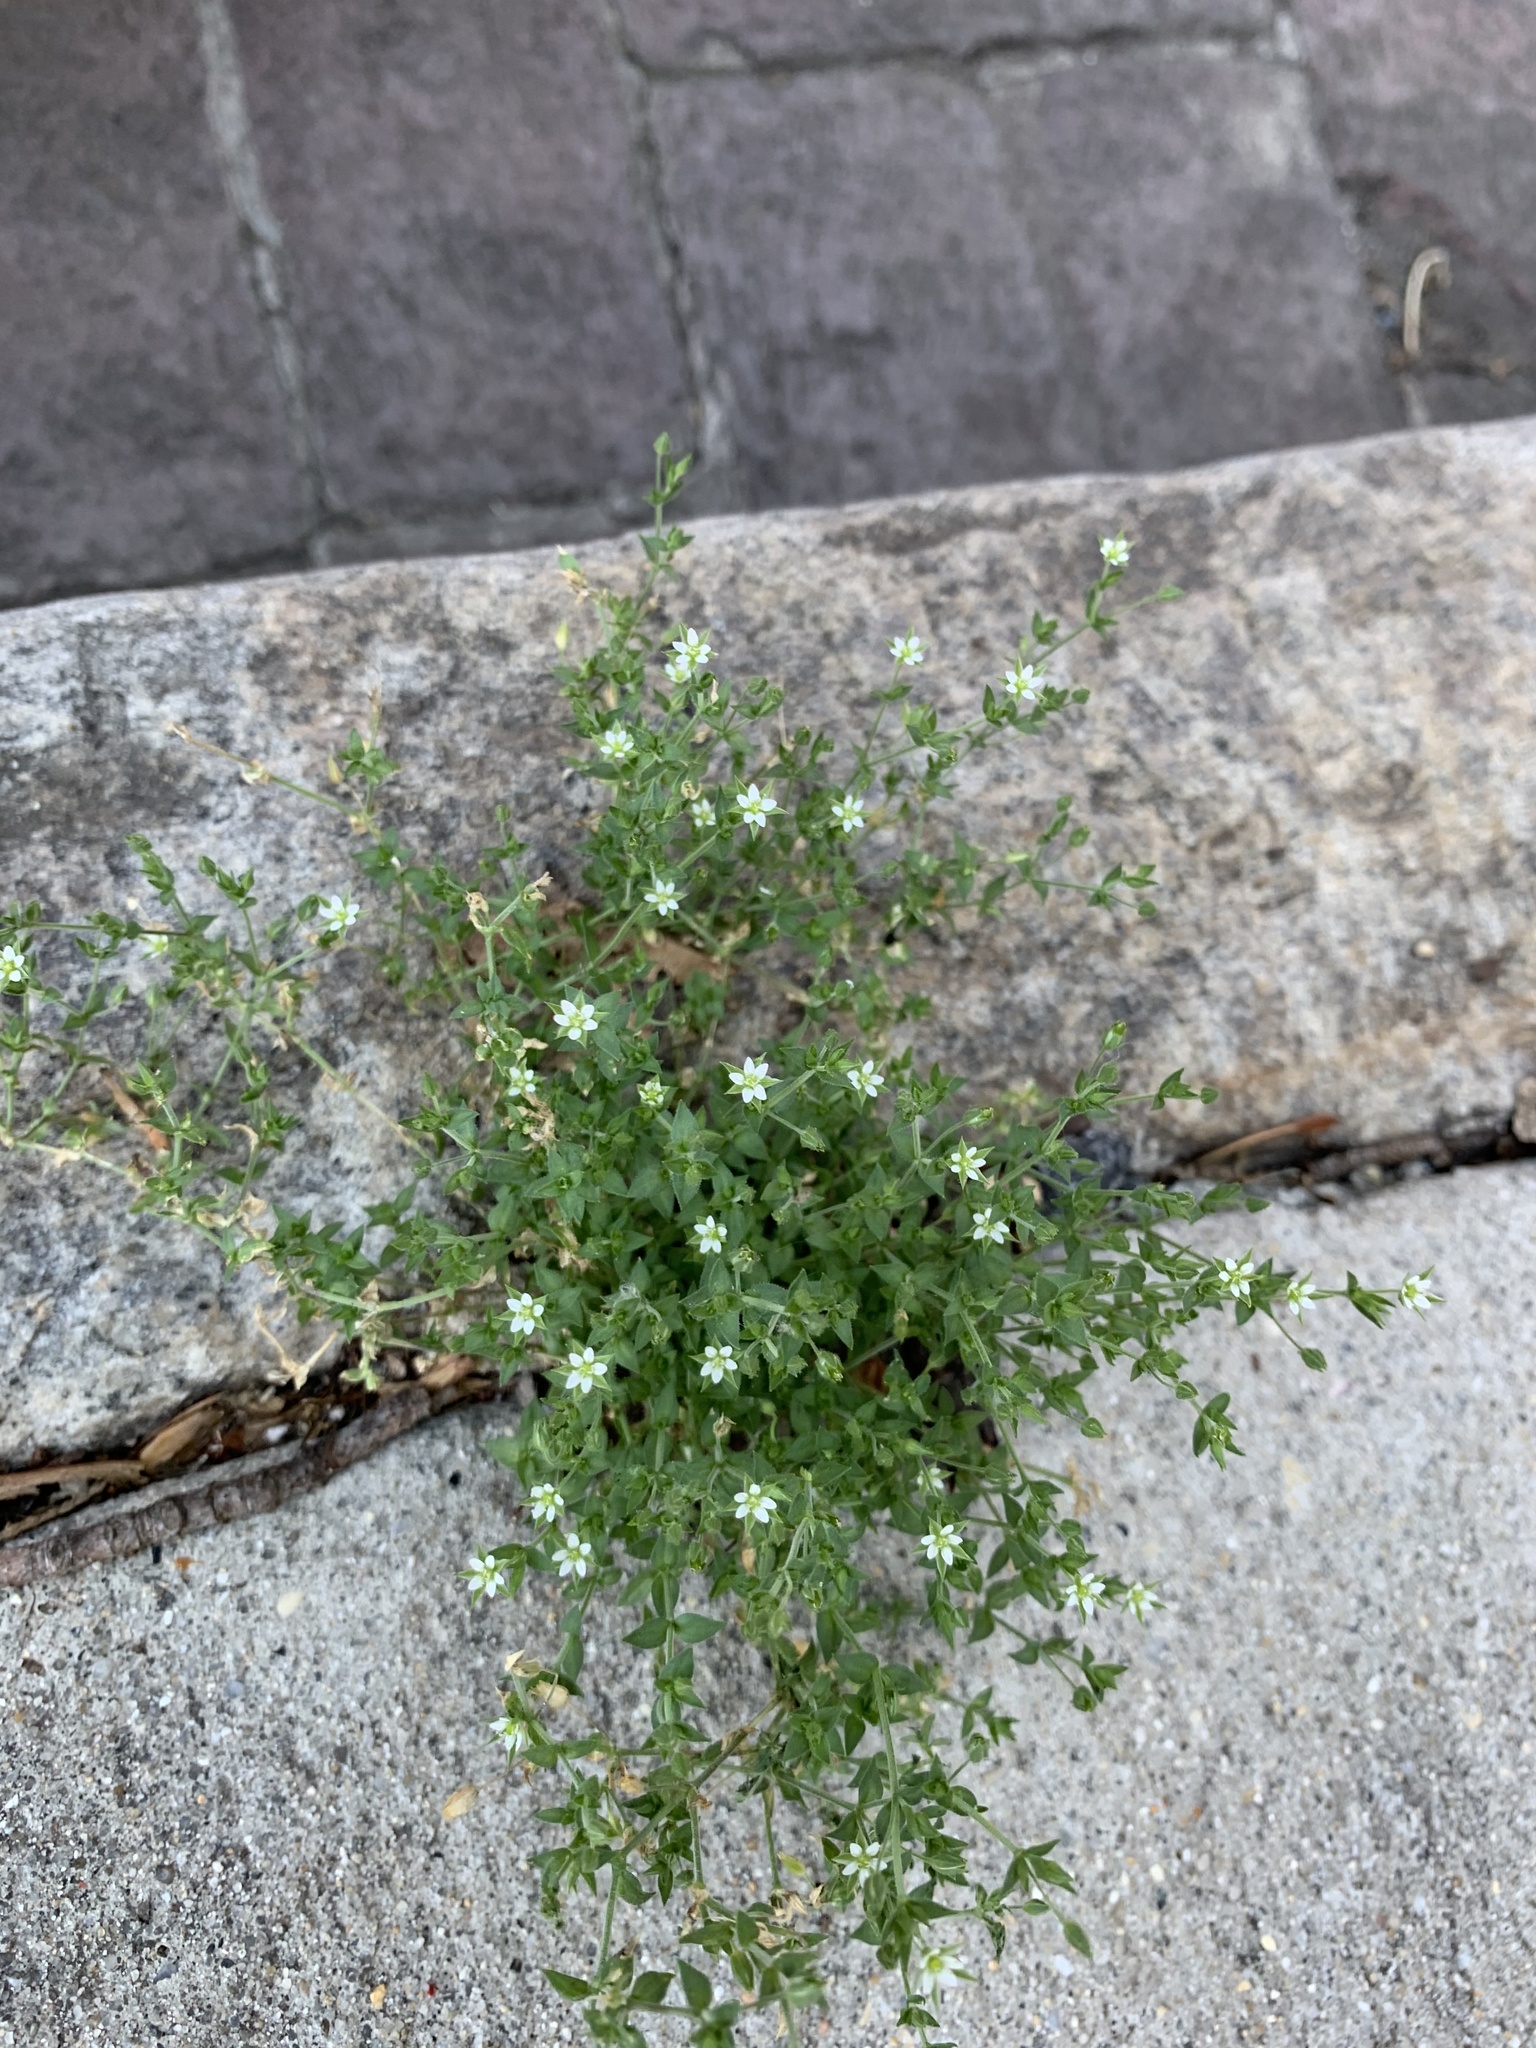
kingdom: Plantae
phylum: Tracheophyta
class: Magnoliopsida
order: Caryophyllales
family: Caryophyllaceae
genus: Arenaria
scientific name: Arenaria serpyllifolia
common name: Thyme-leaved sandwort
